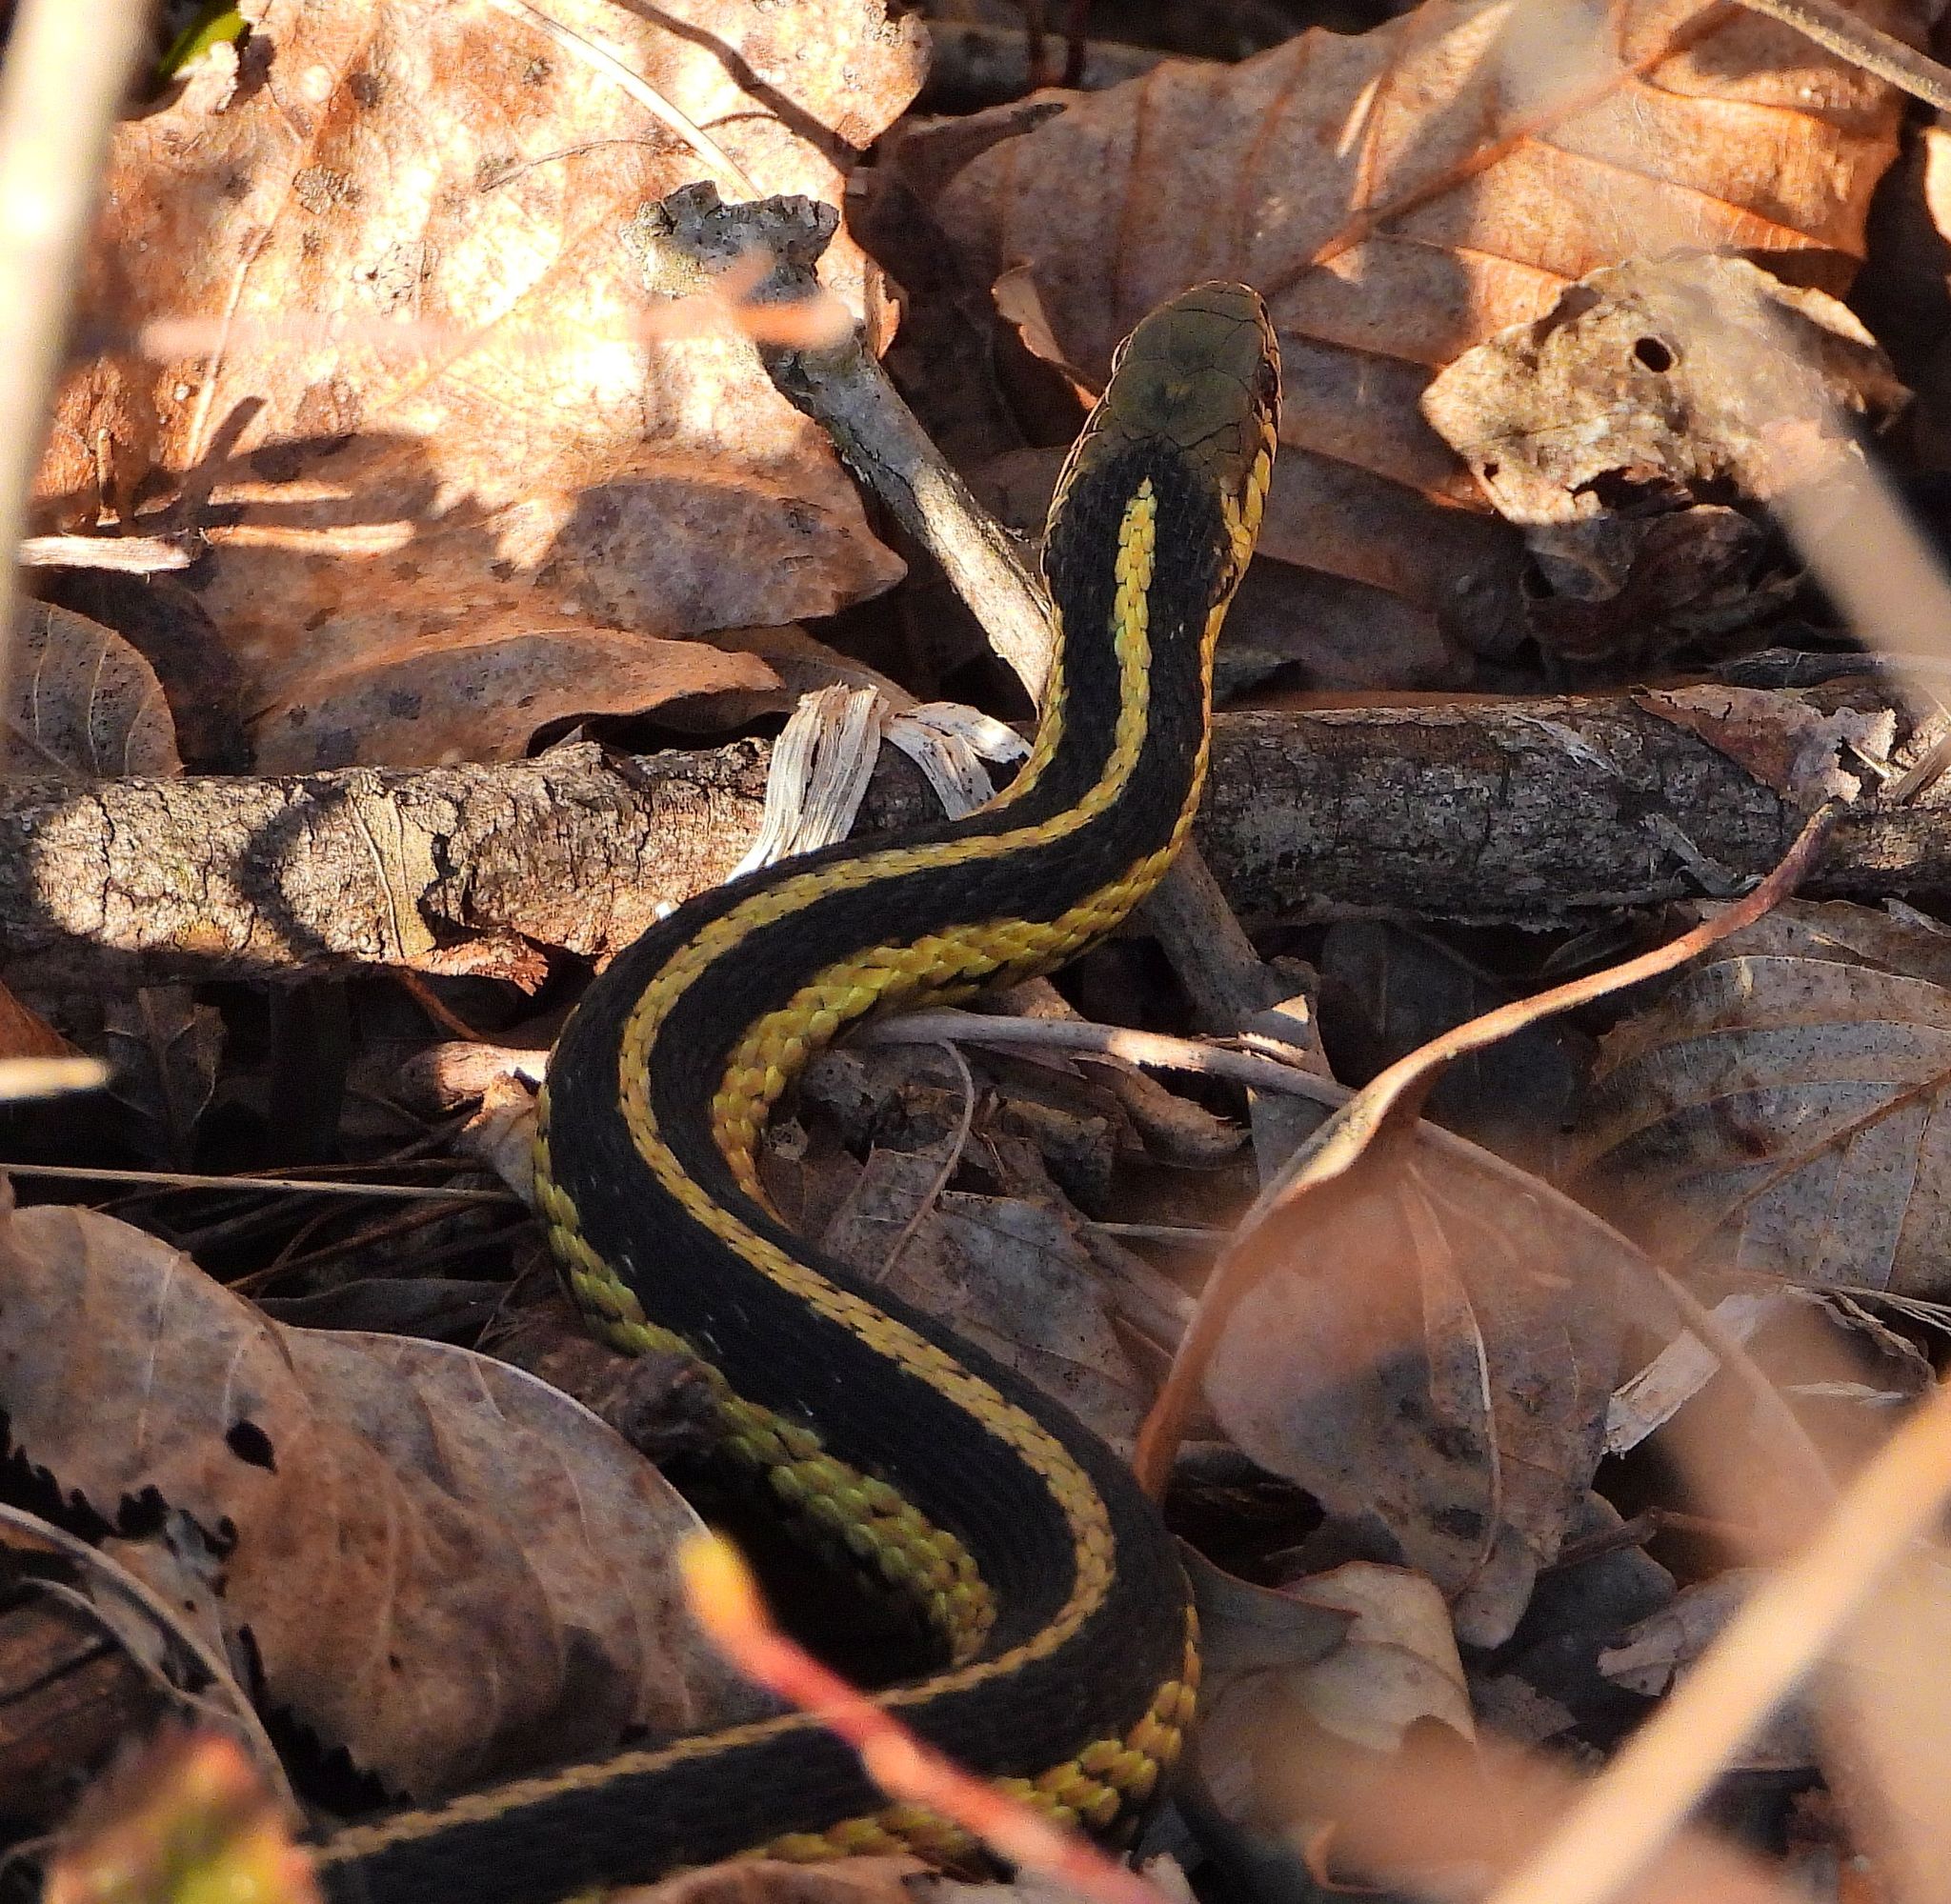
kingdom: Animalia
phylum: Chordata
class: Squamata
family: Colubridae
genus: Thamnophis
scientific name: Thamnophis sirtalis
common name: Common garter snake
